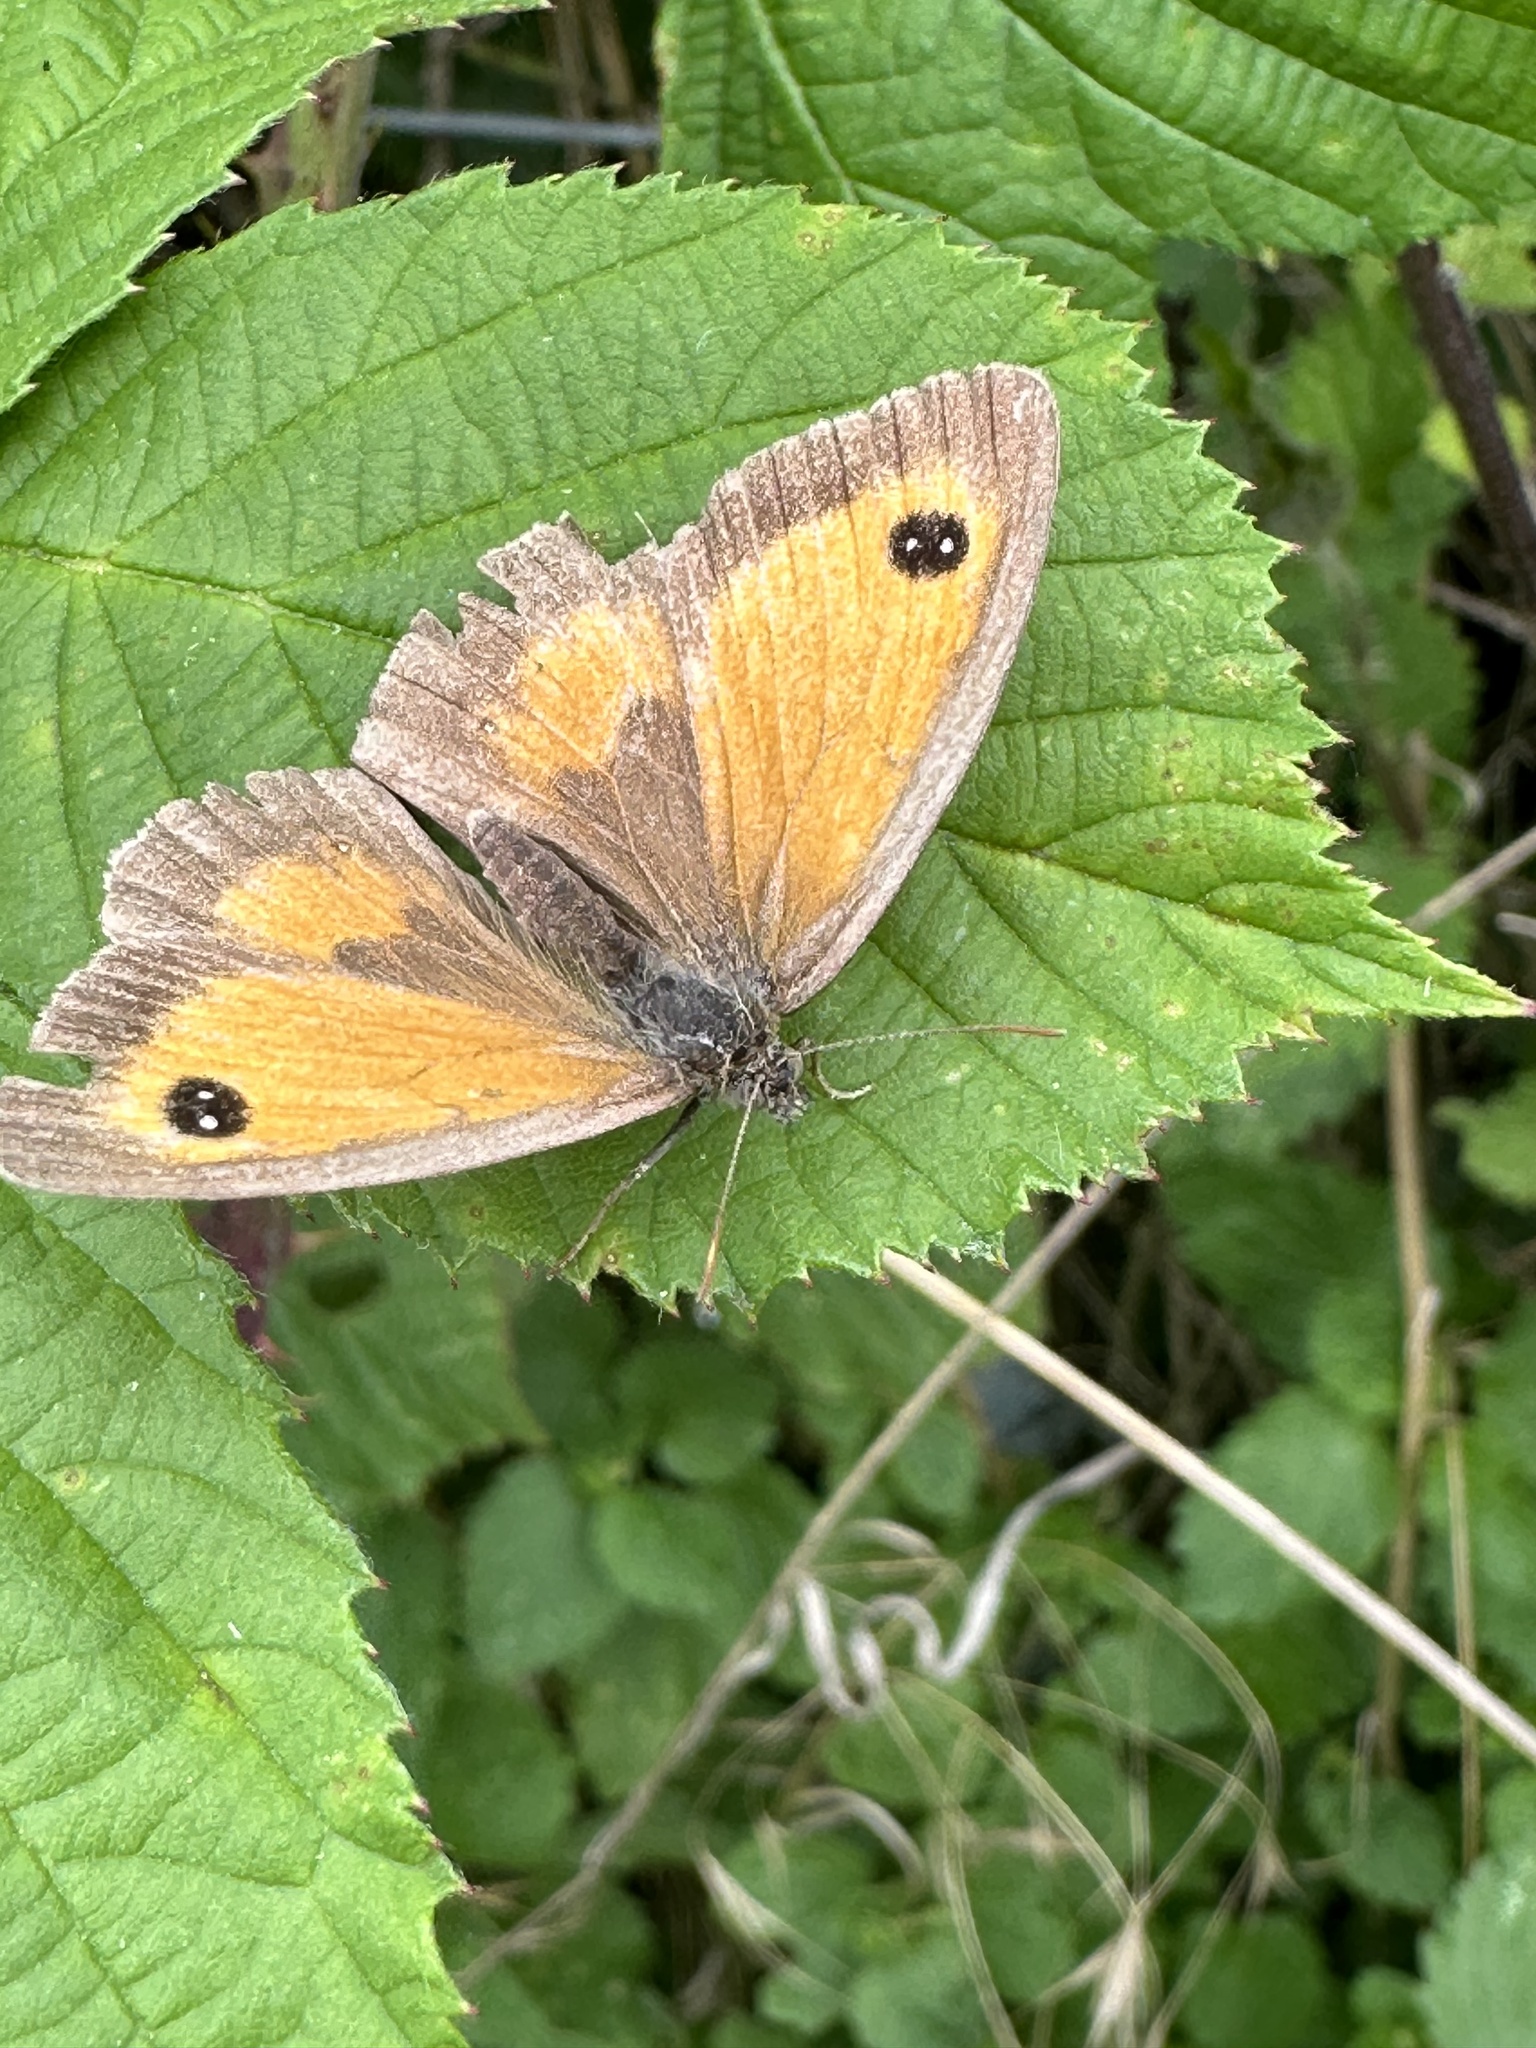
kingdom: Animalia
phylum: Arthropoda
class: Insecta
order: Lepidoptera
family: Nymphalidae
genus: Maniola
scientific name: Maniola jurtina
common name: Meadow brown
